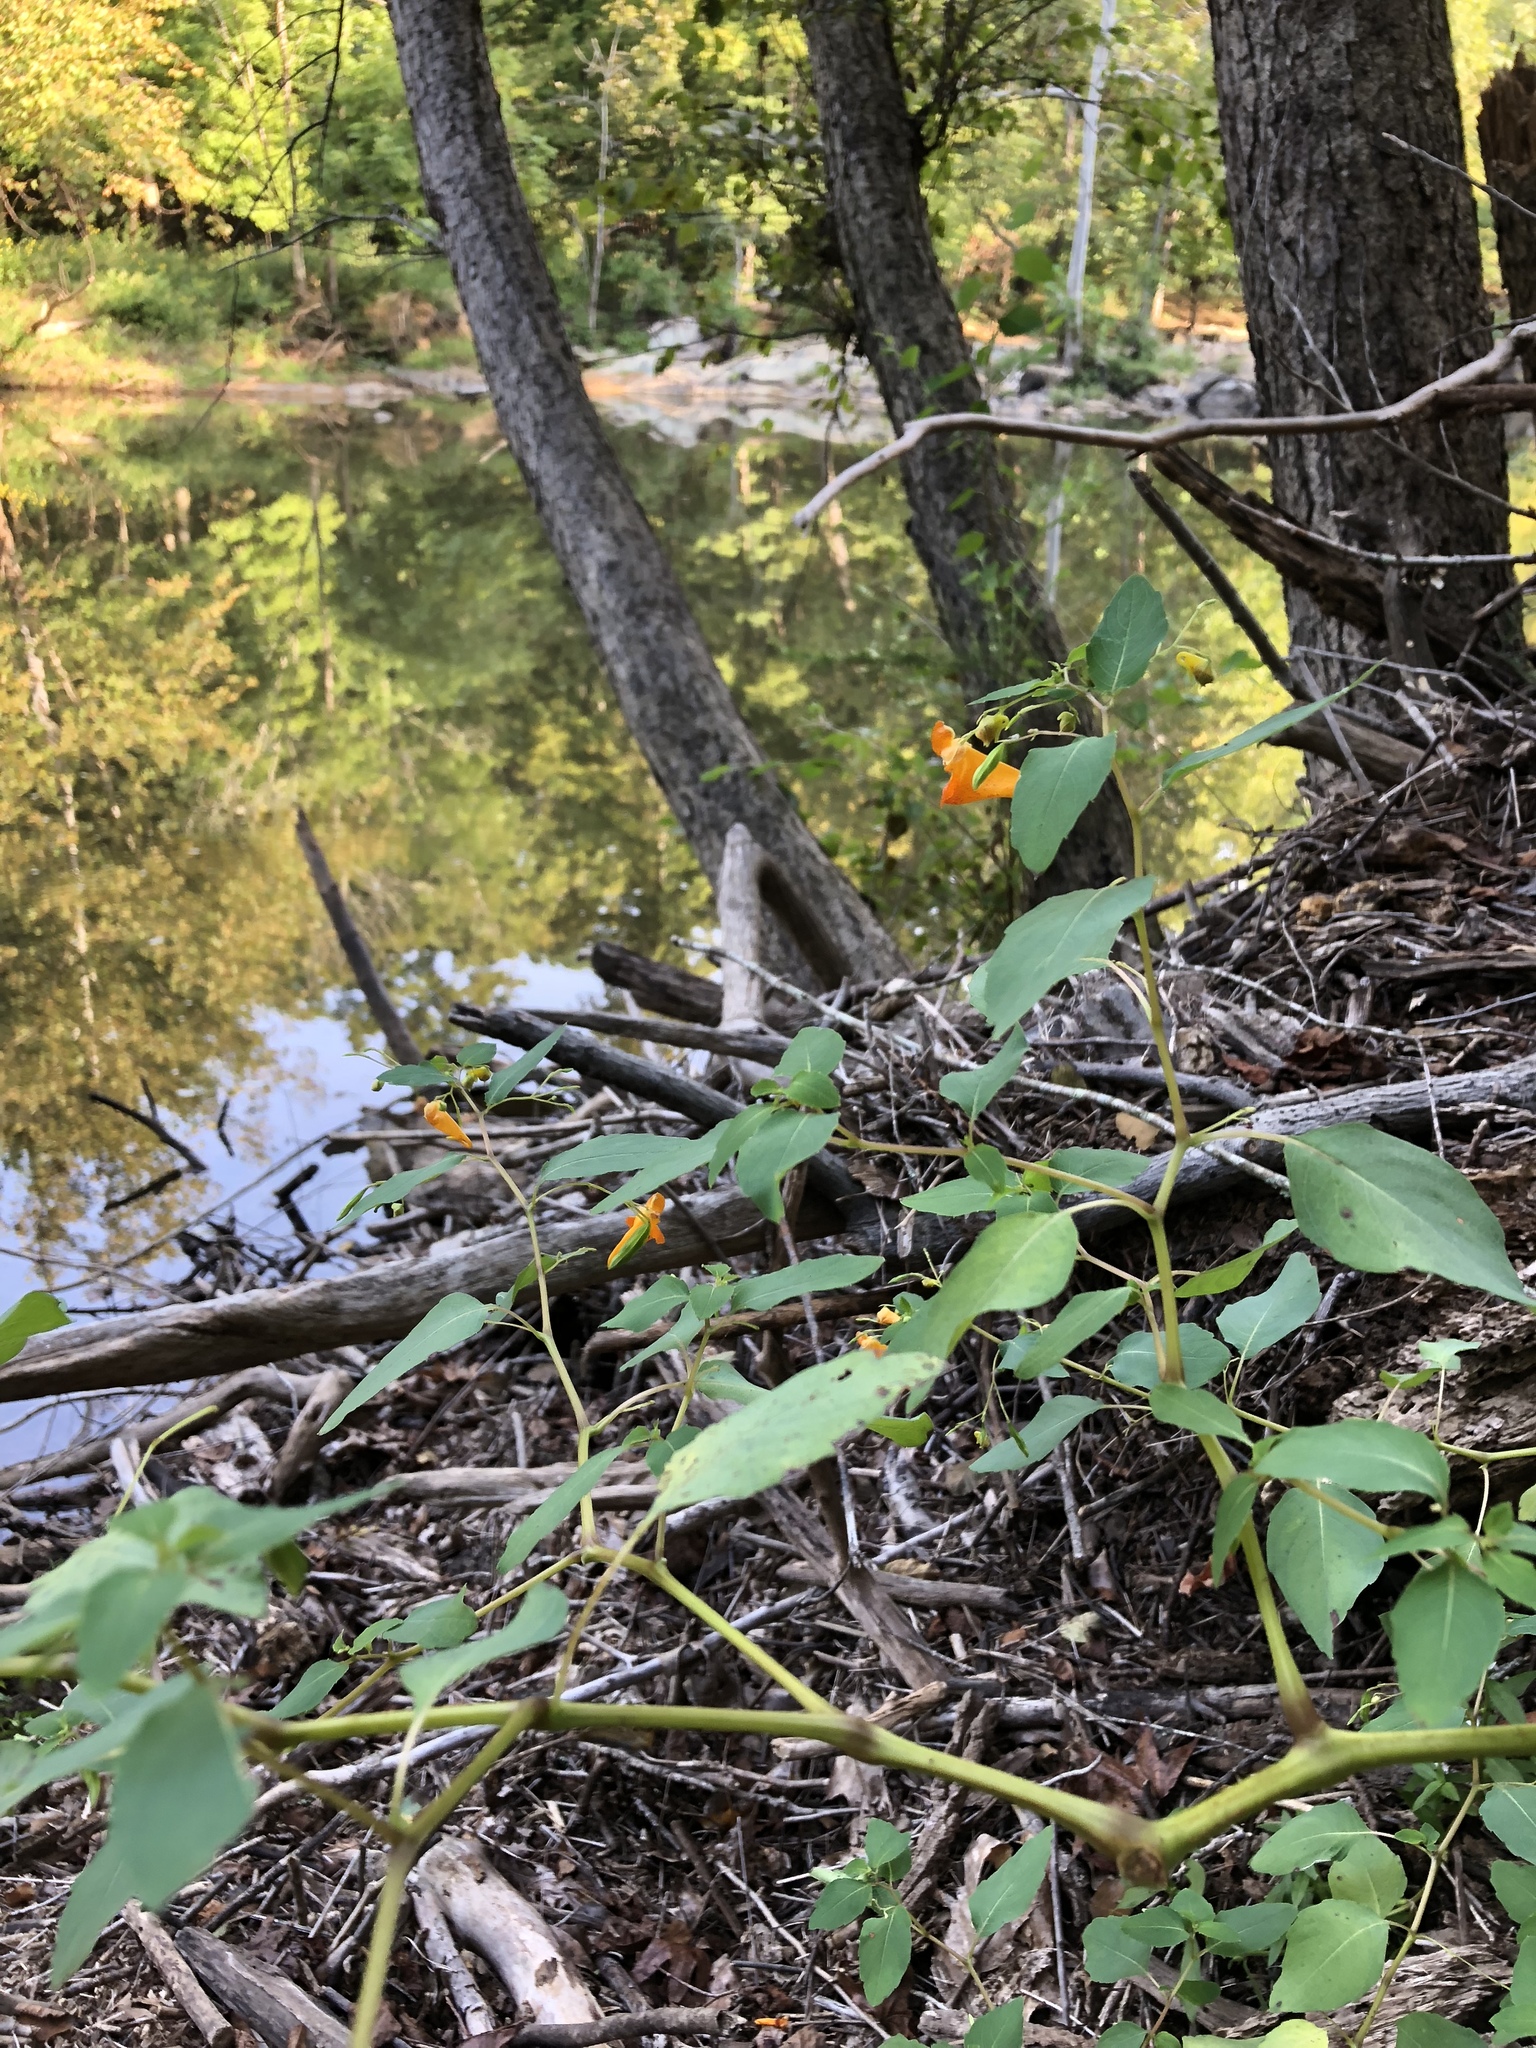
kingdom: Plantae
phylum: Tracheophyta
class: Magnoliopsida
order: Ericales
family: Balsaminaceae
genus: Impatiens
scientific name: Impatiens capensis
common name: Orange balsam
